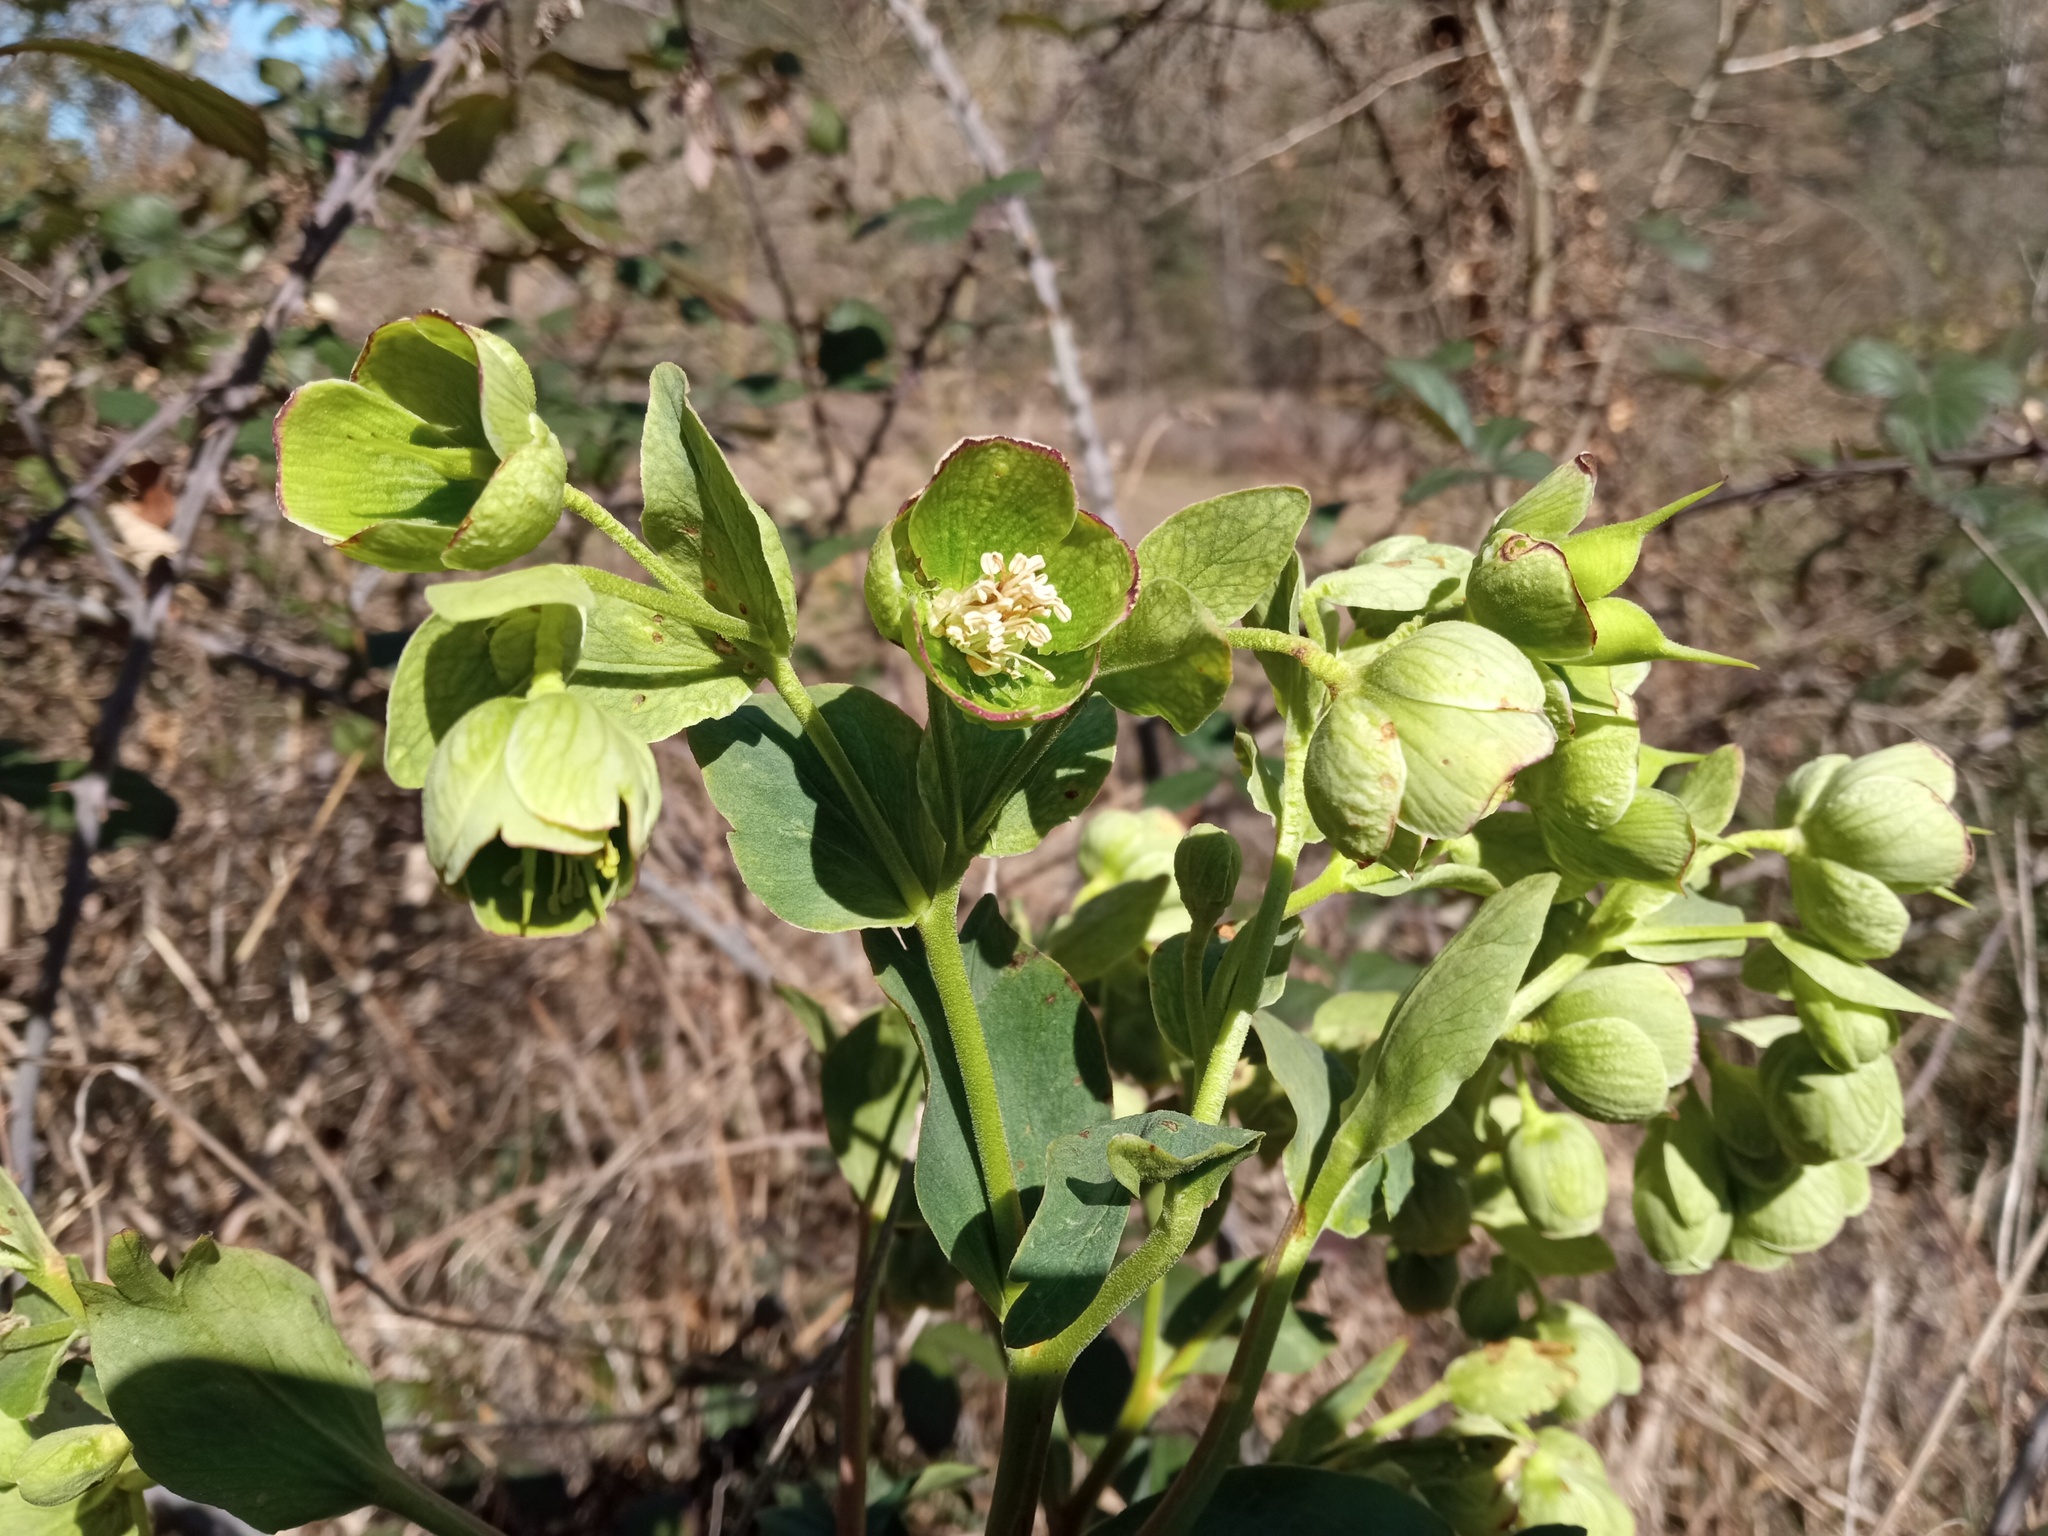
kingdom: Plantae
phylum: Tracheophyta
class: Magnoliopsida
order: Ranunculales
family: Ranunculaceae
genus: Helleborus
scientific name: Helleborus foetidus
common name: Stinking hellebore
